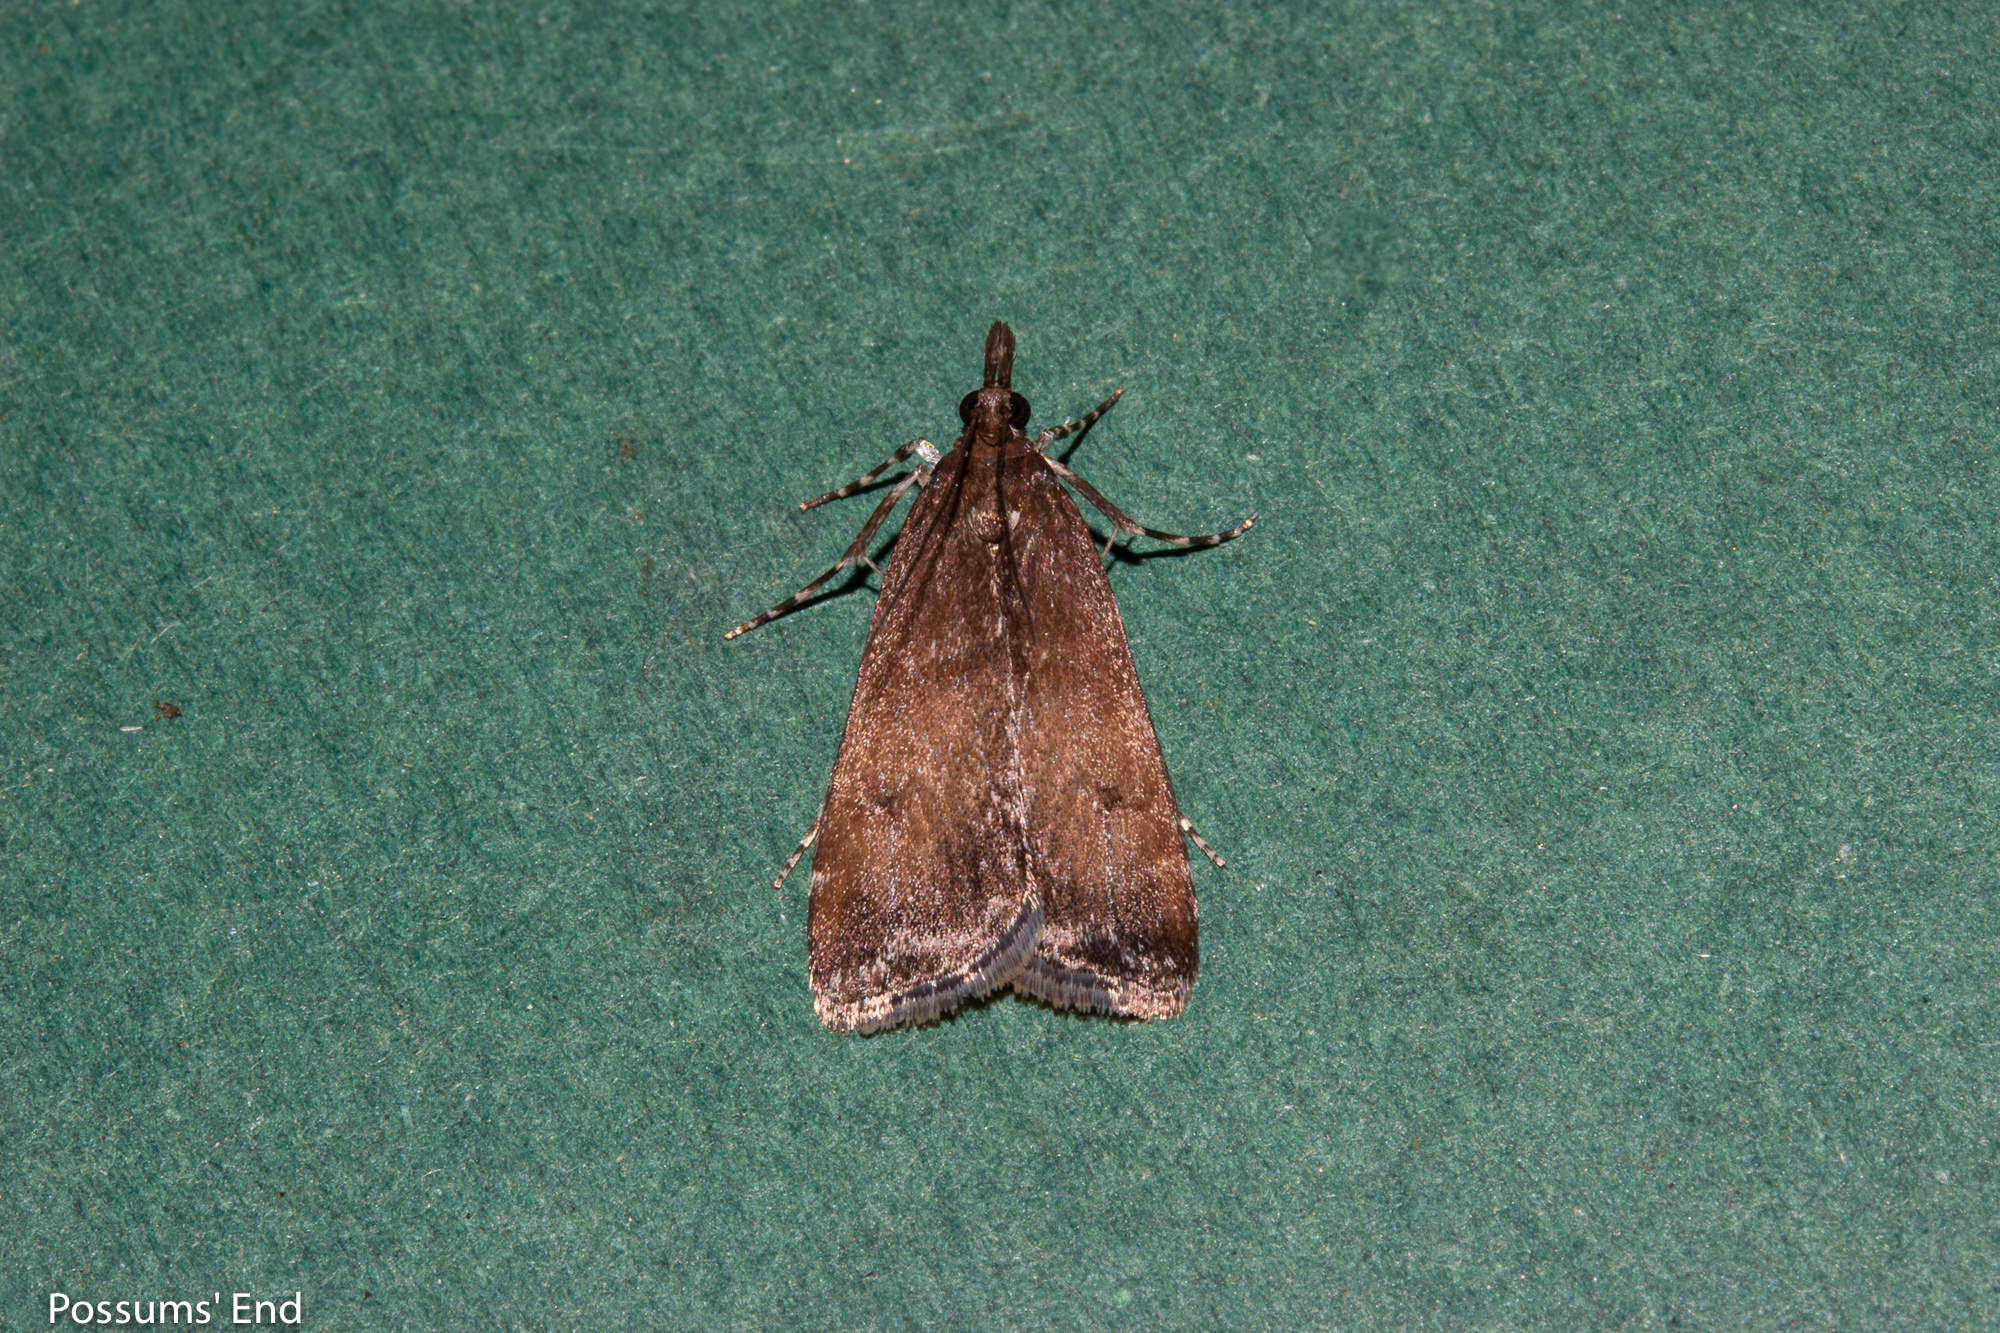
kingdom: Animalia
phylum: Arthropoda
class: Insecta
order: Lepidoptera
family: Crambidae
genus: Eudonia
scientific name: Eudonia asterisca
